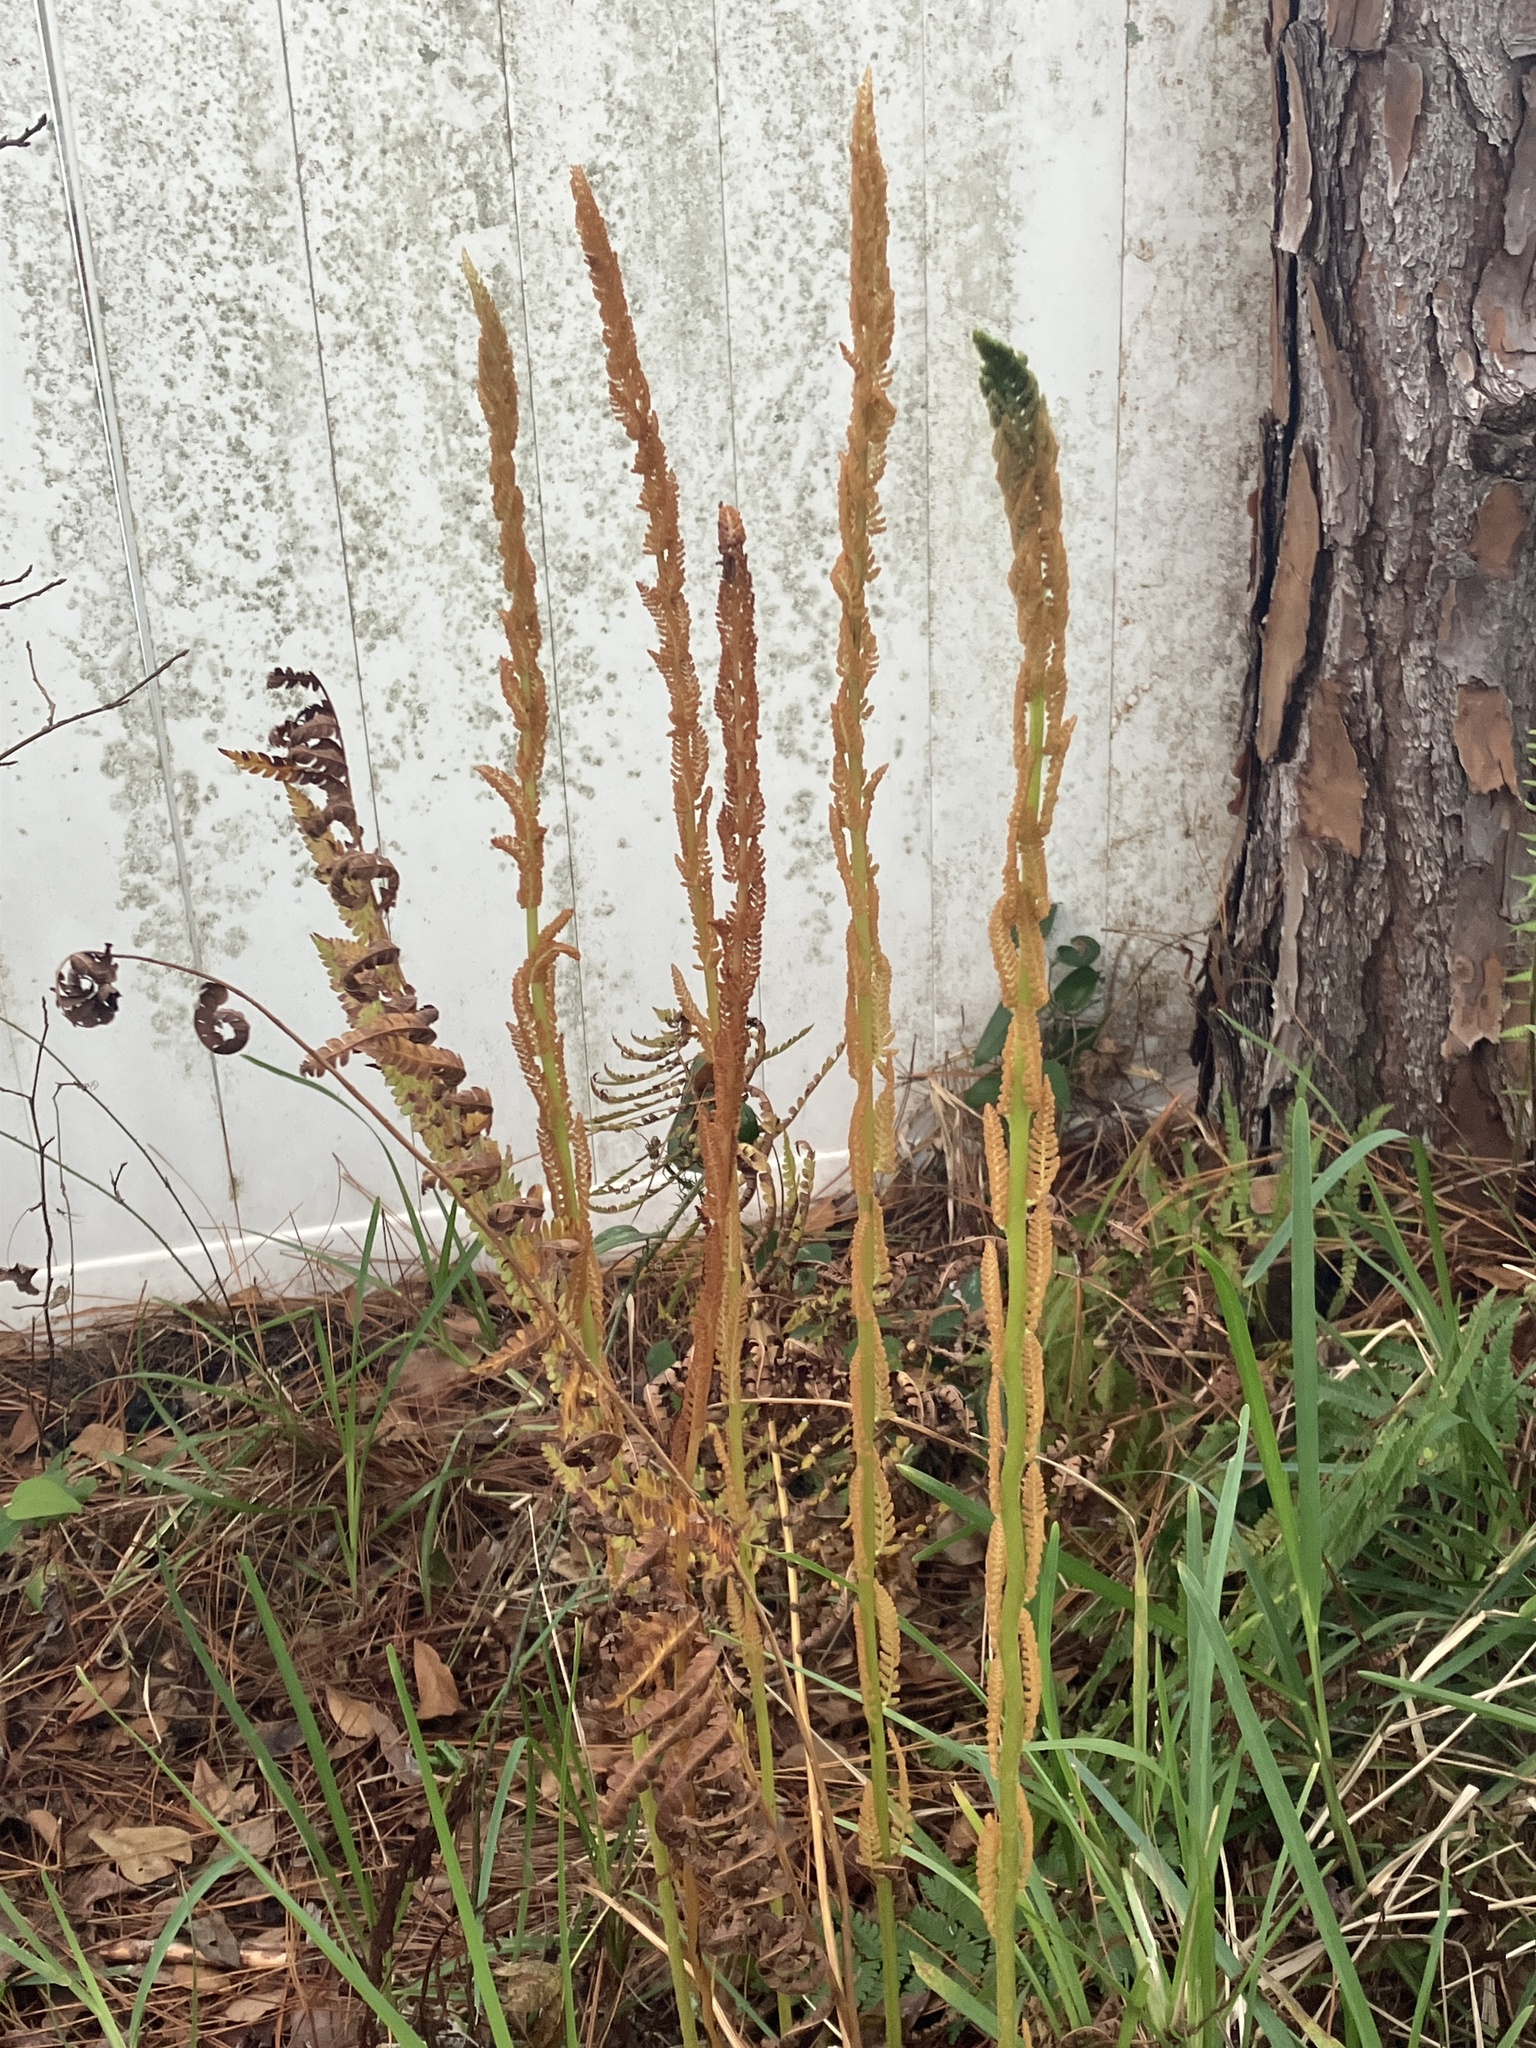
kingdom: Plantae
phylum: Tracheophyta
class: Polypodiopsida
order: Osmundales
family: Osmundaceae
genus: Osmundastrum
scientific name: Osmundastrum cinnamomeum
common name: Cinnamon fern
